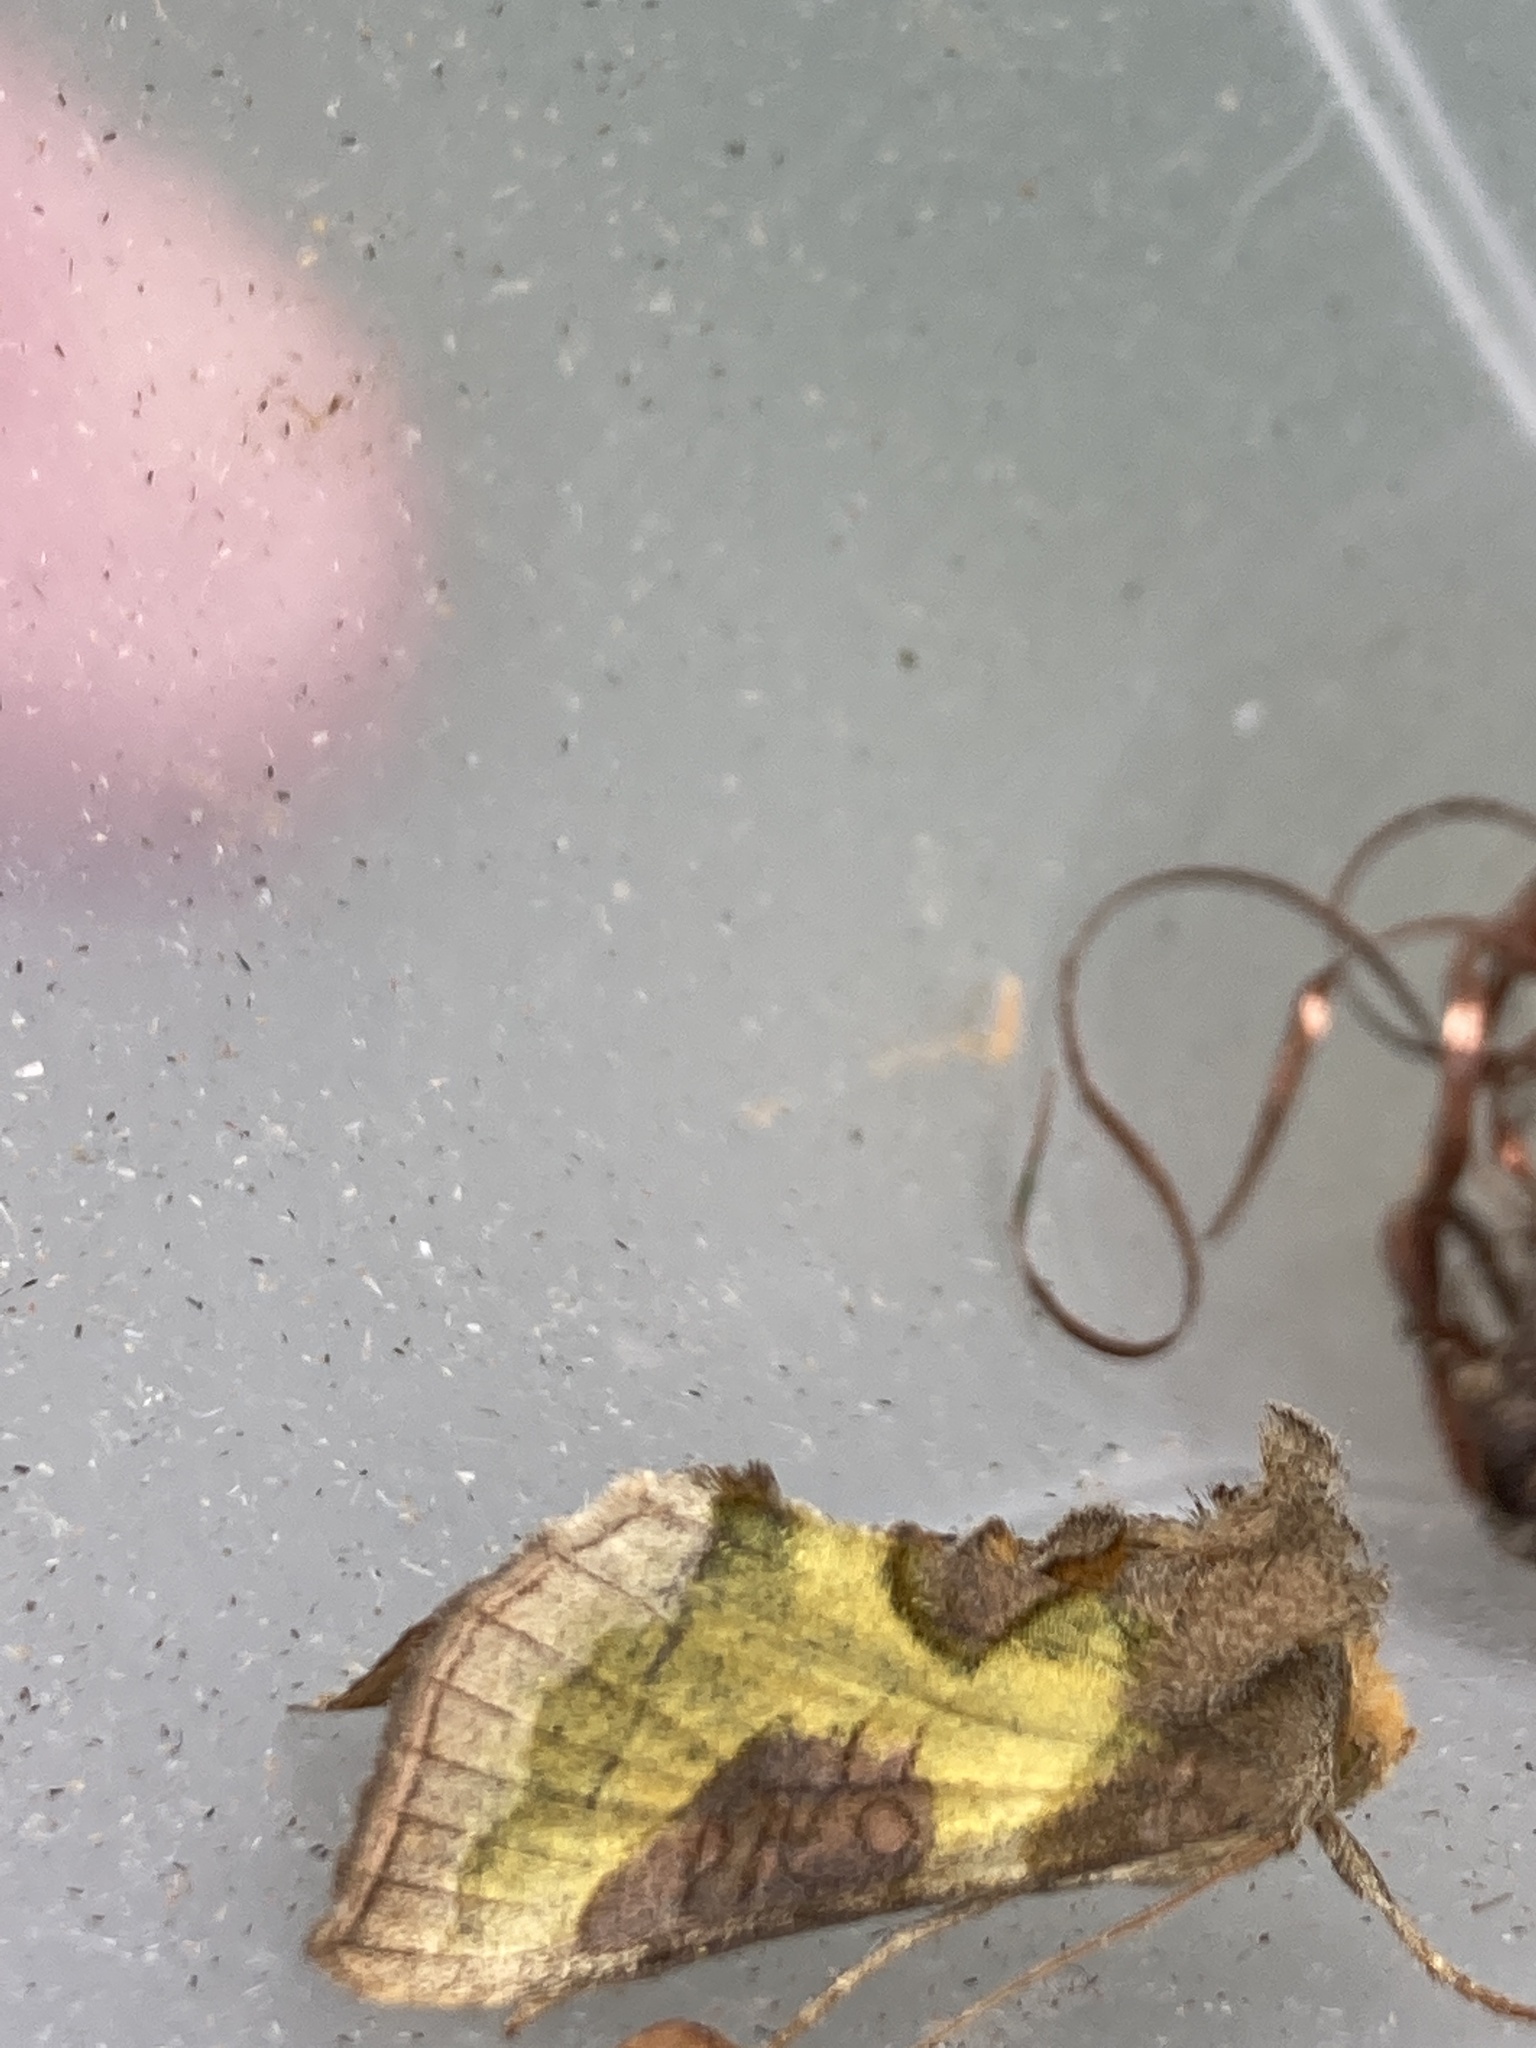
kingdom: Animalia
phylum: Arthropoda
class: Insecta
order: Lepidoptera
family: Noctuidae
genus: Diachrysia
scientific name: Diachrysia chrysitis
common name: Burnished brass
